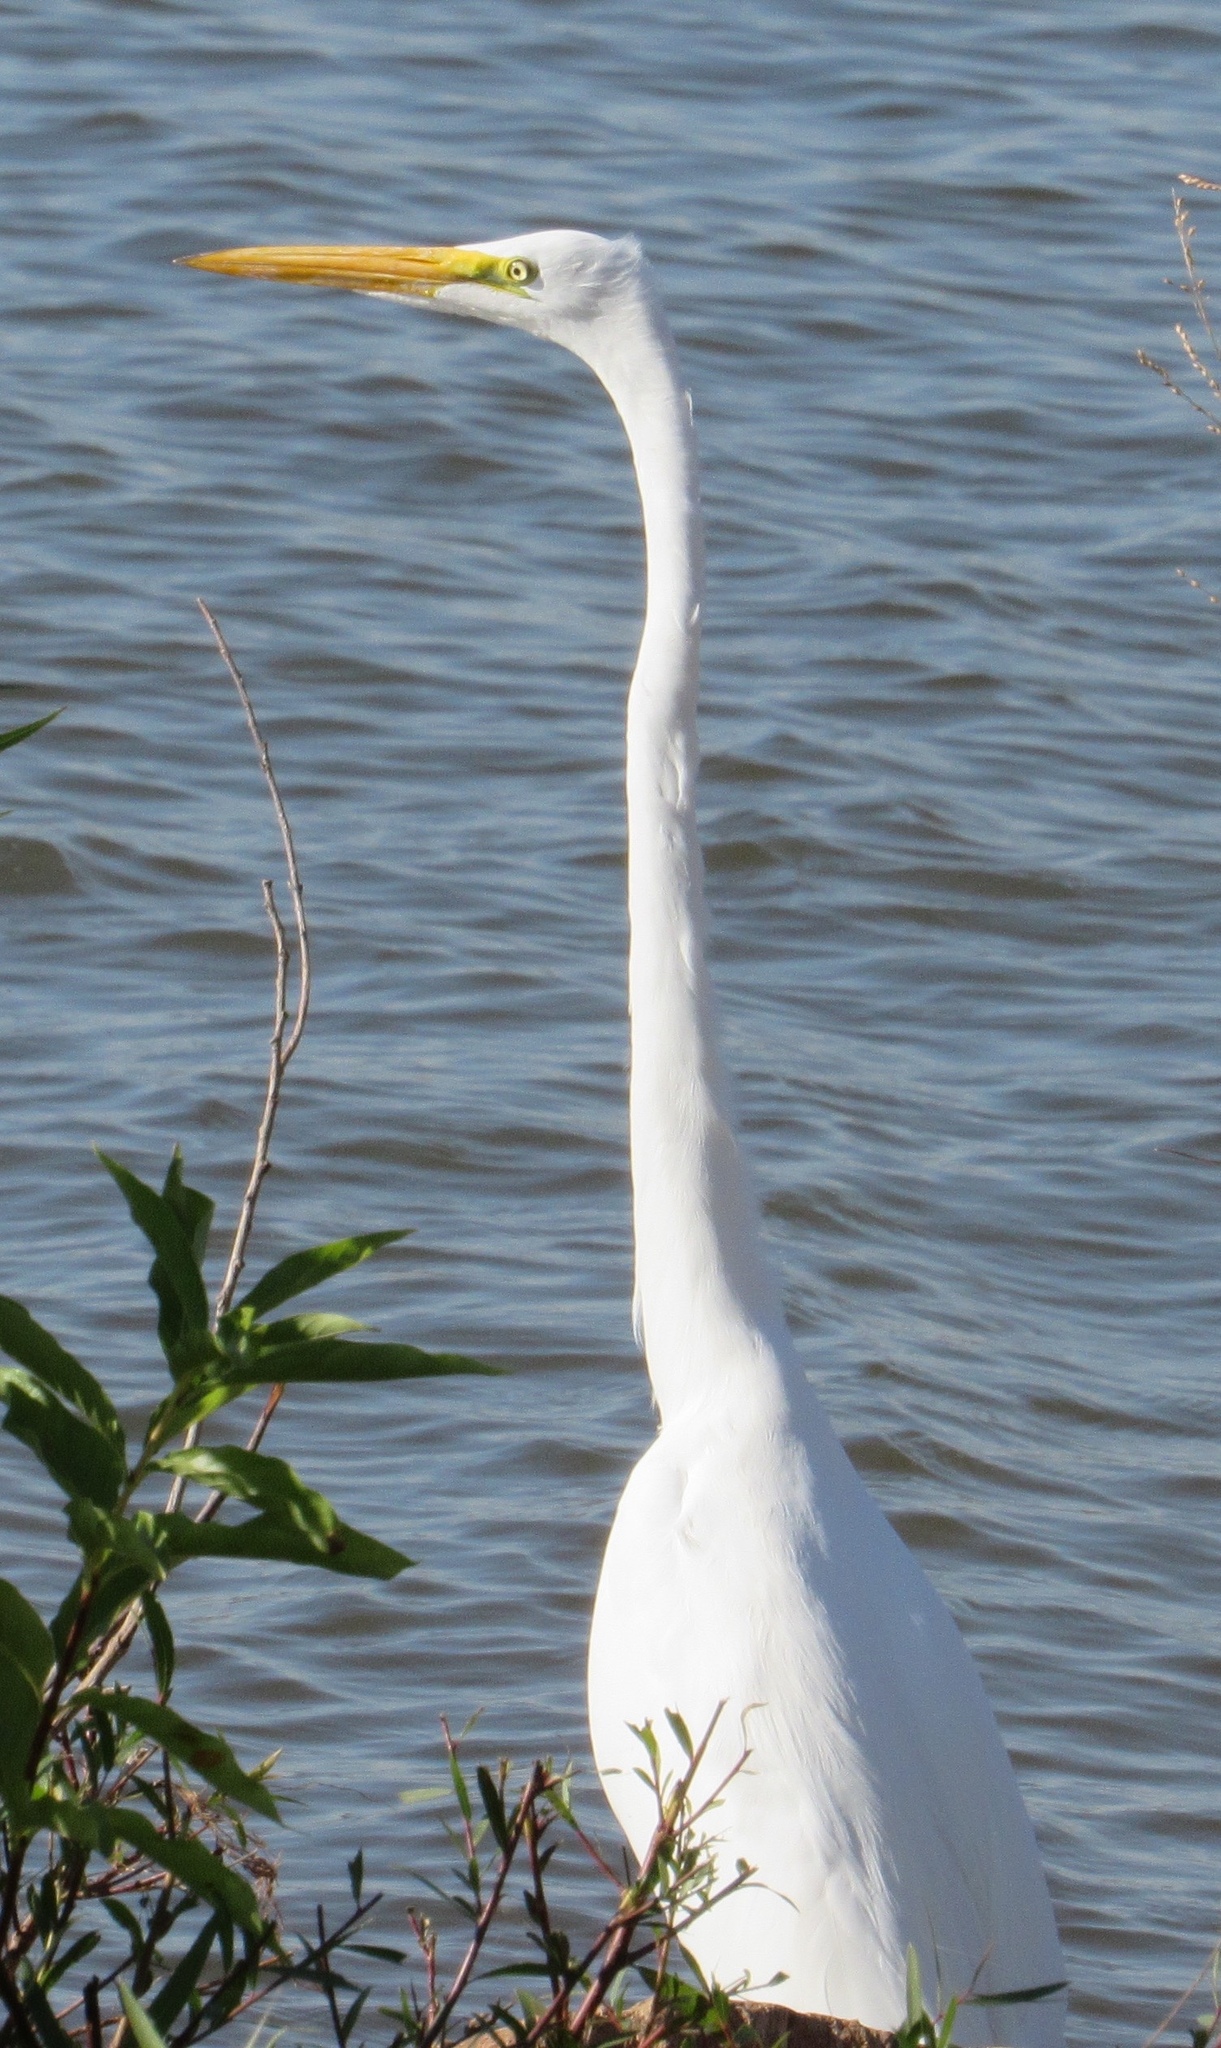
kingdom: Animalia
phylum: Chordata
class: Aves
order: Pelecaniformes
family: Ardeidae
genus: Ardea
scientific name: Ardea alba
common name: Great egret
